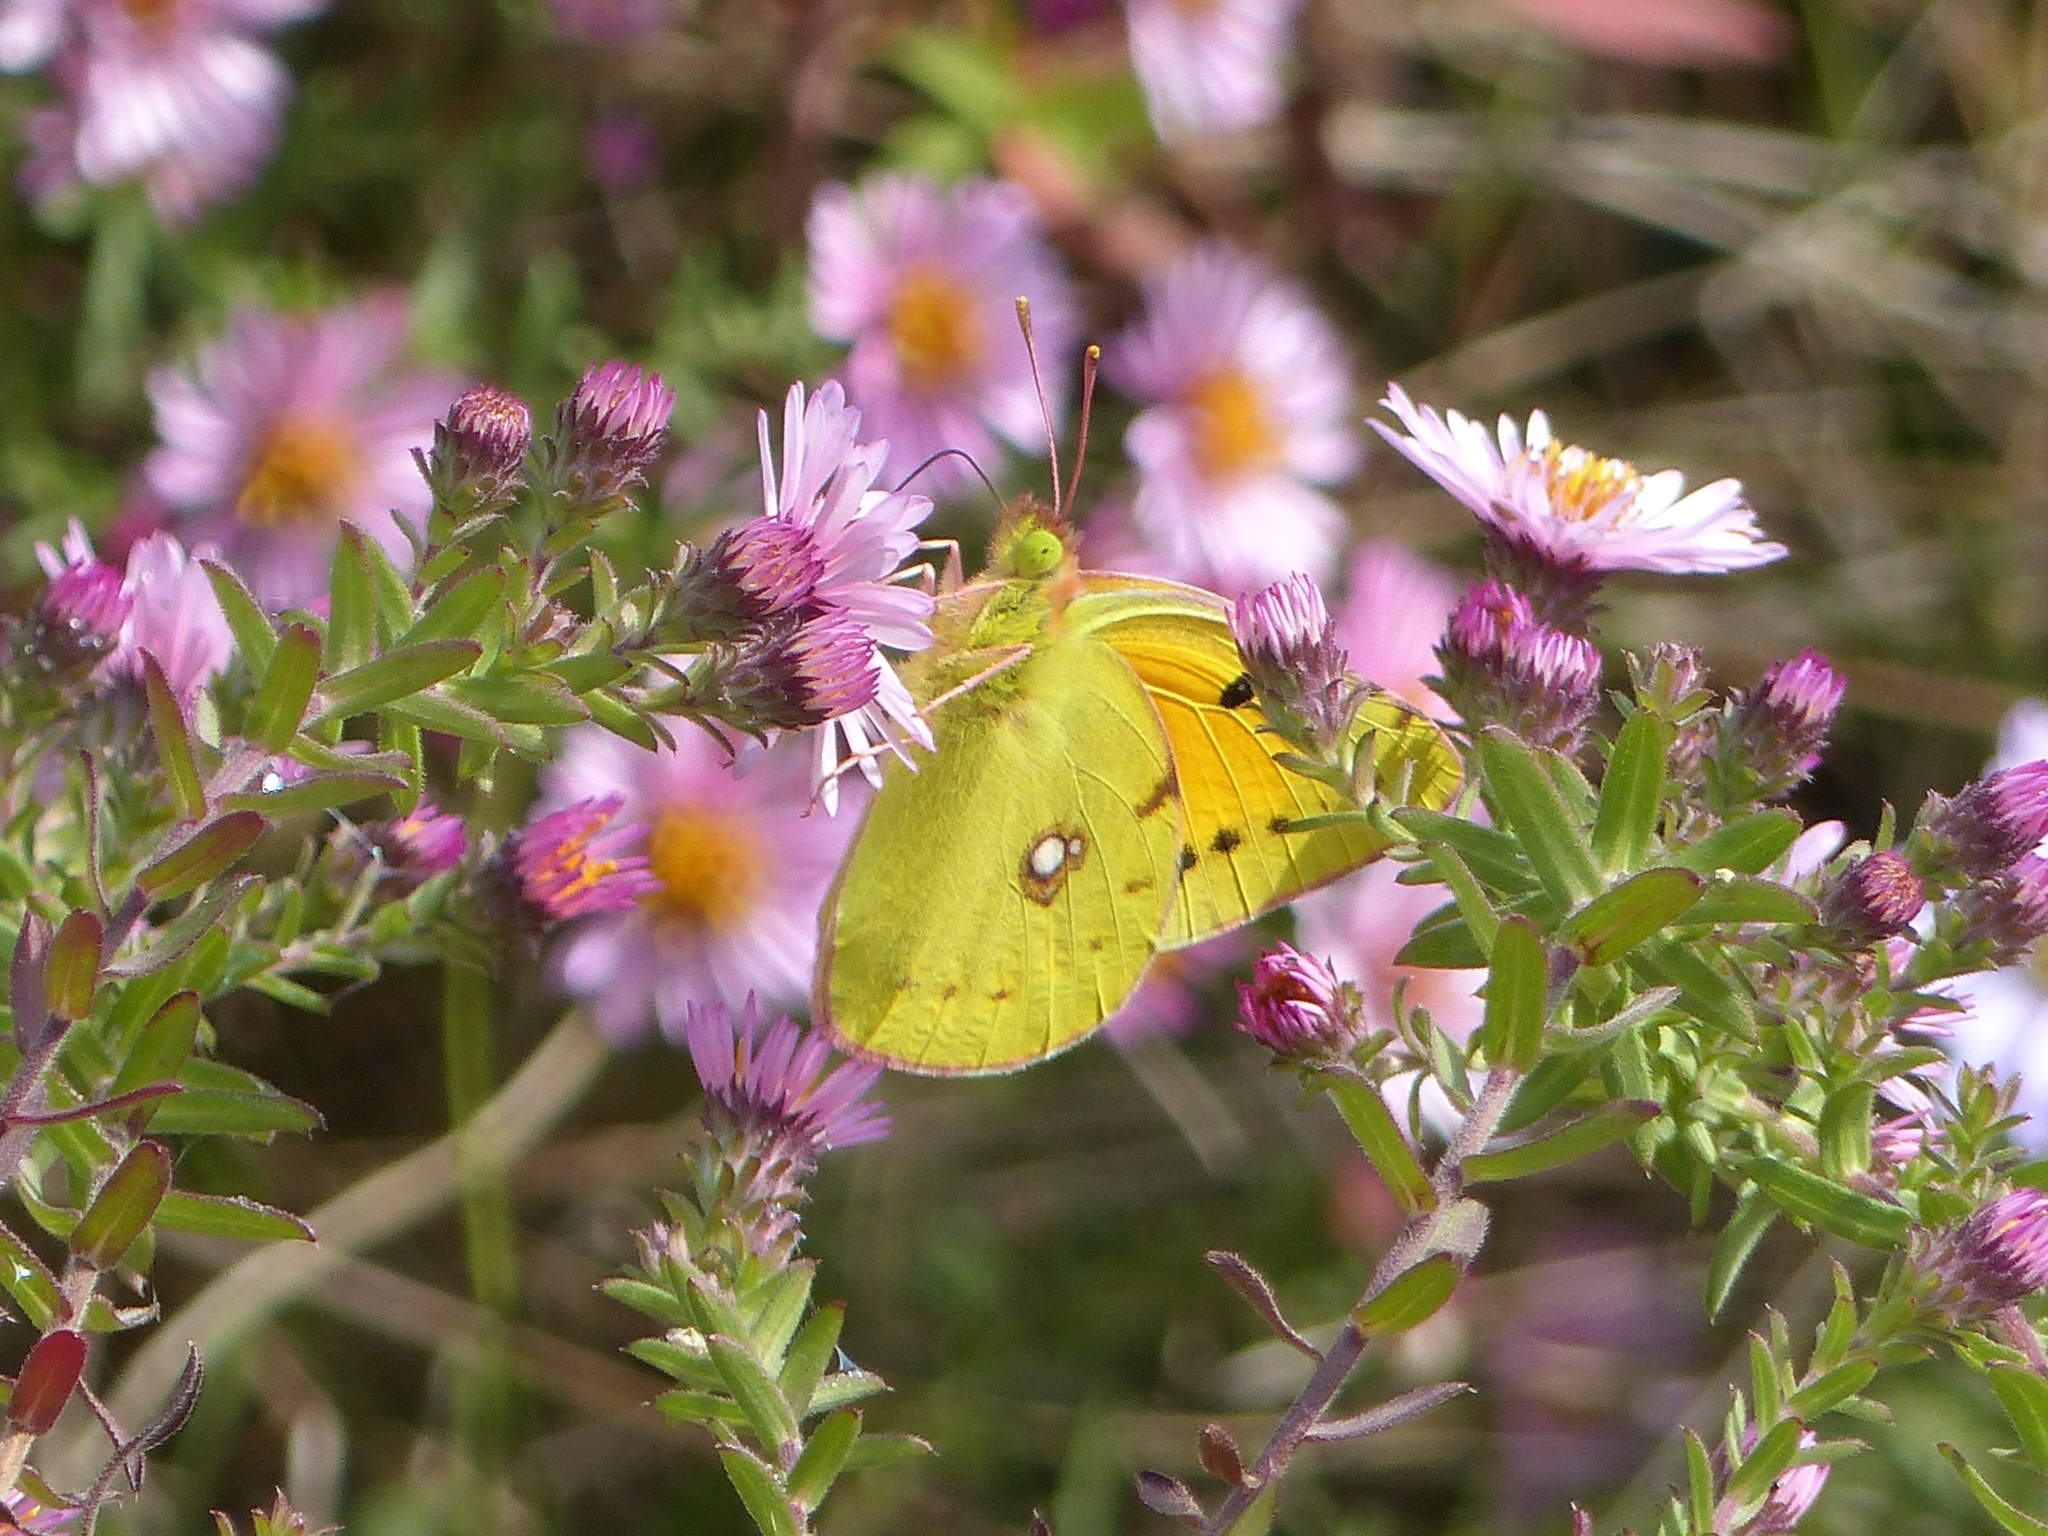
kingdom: Animalia
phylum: Arthropoda
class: Insecta
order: Lepidoptera
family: Pieridae
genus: Colias
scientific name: Colias croceus
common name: Clouded yellow
